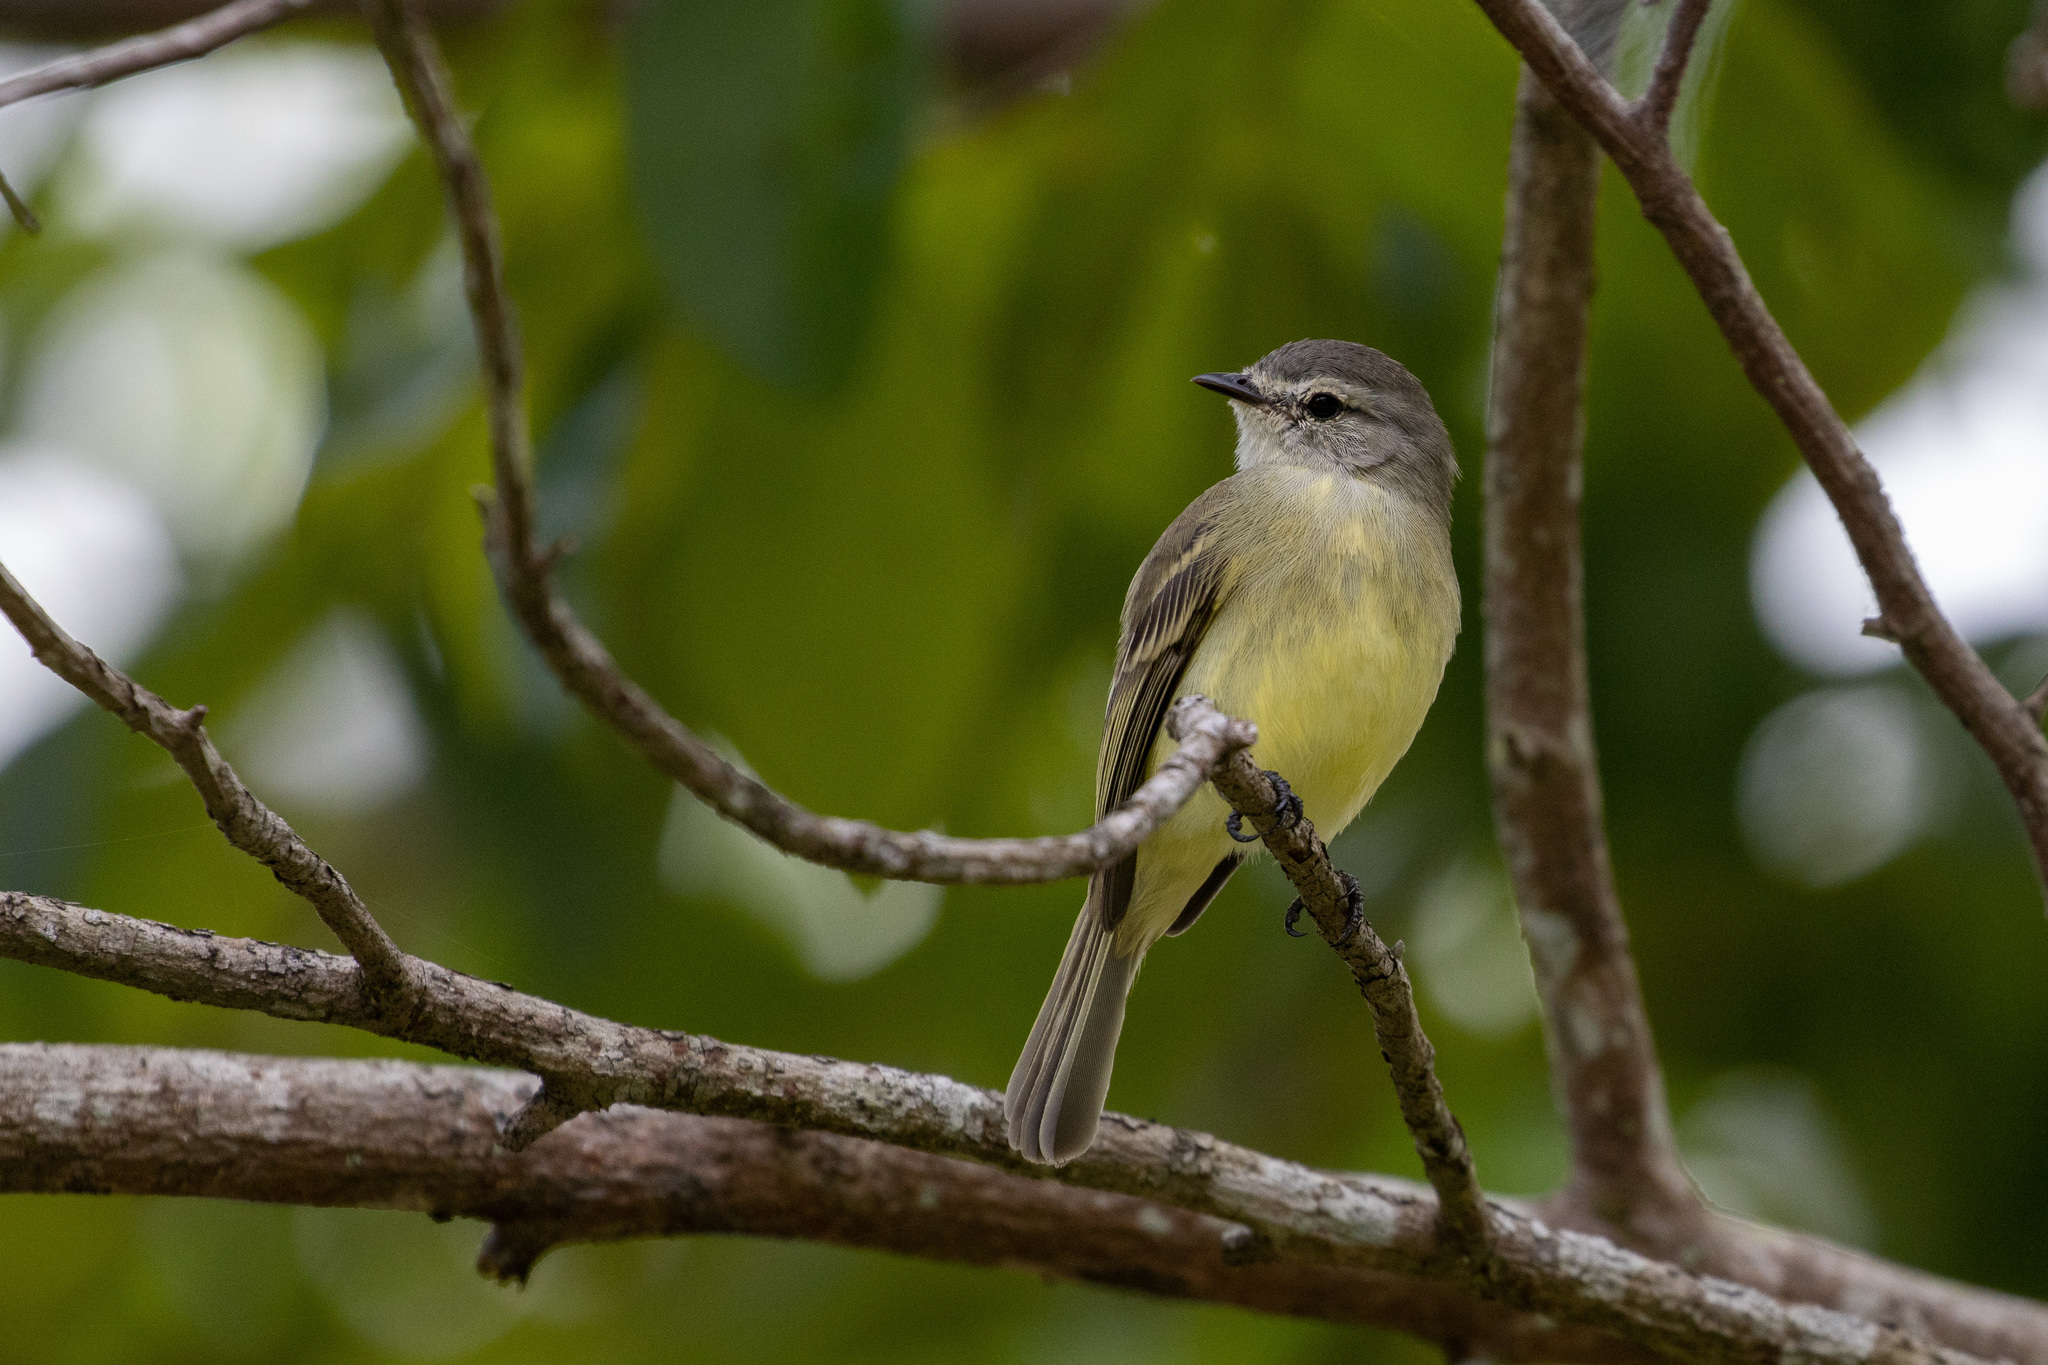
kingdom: Animalia
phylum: Chordata
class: Aves
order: Passeriformes
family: Tyrannidae
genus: Phyllomyias
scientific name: Phyllomyias fasciatus
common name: Planalto tyrannulet
